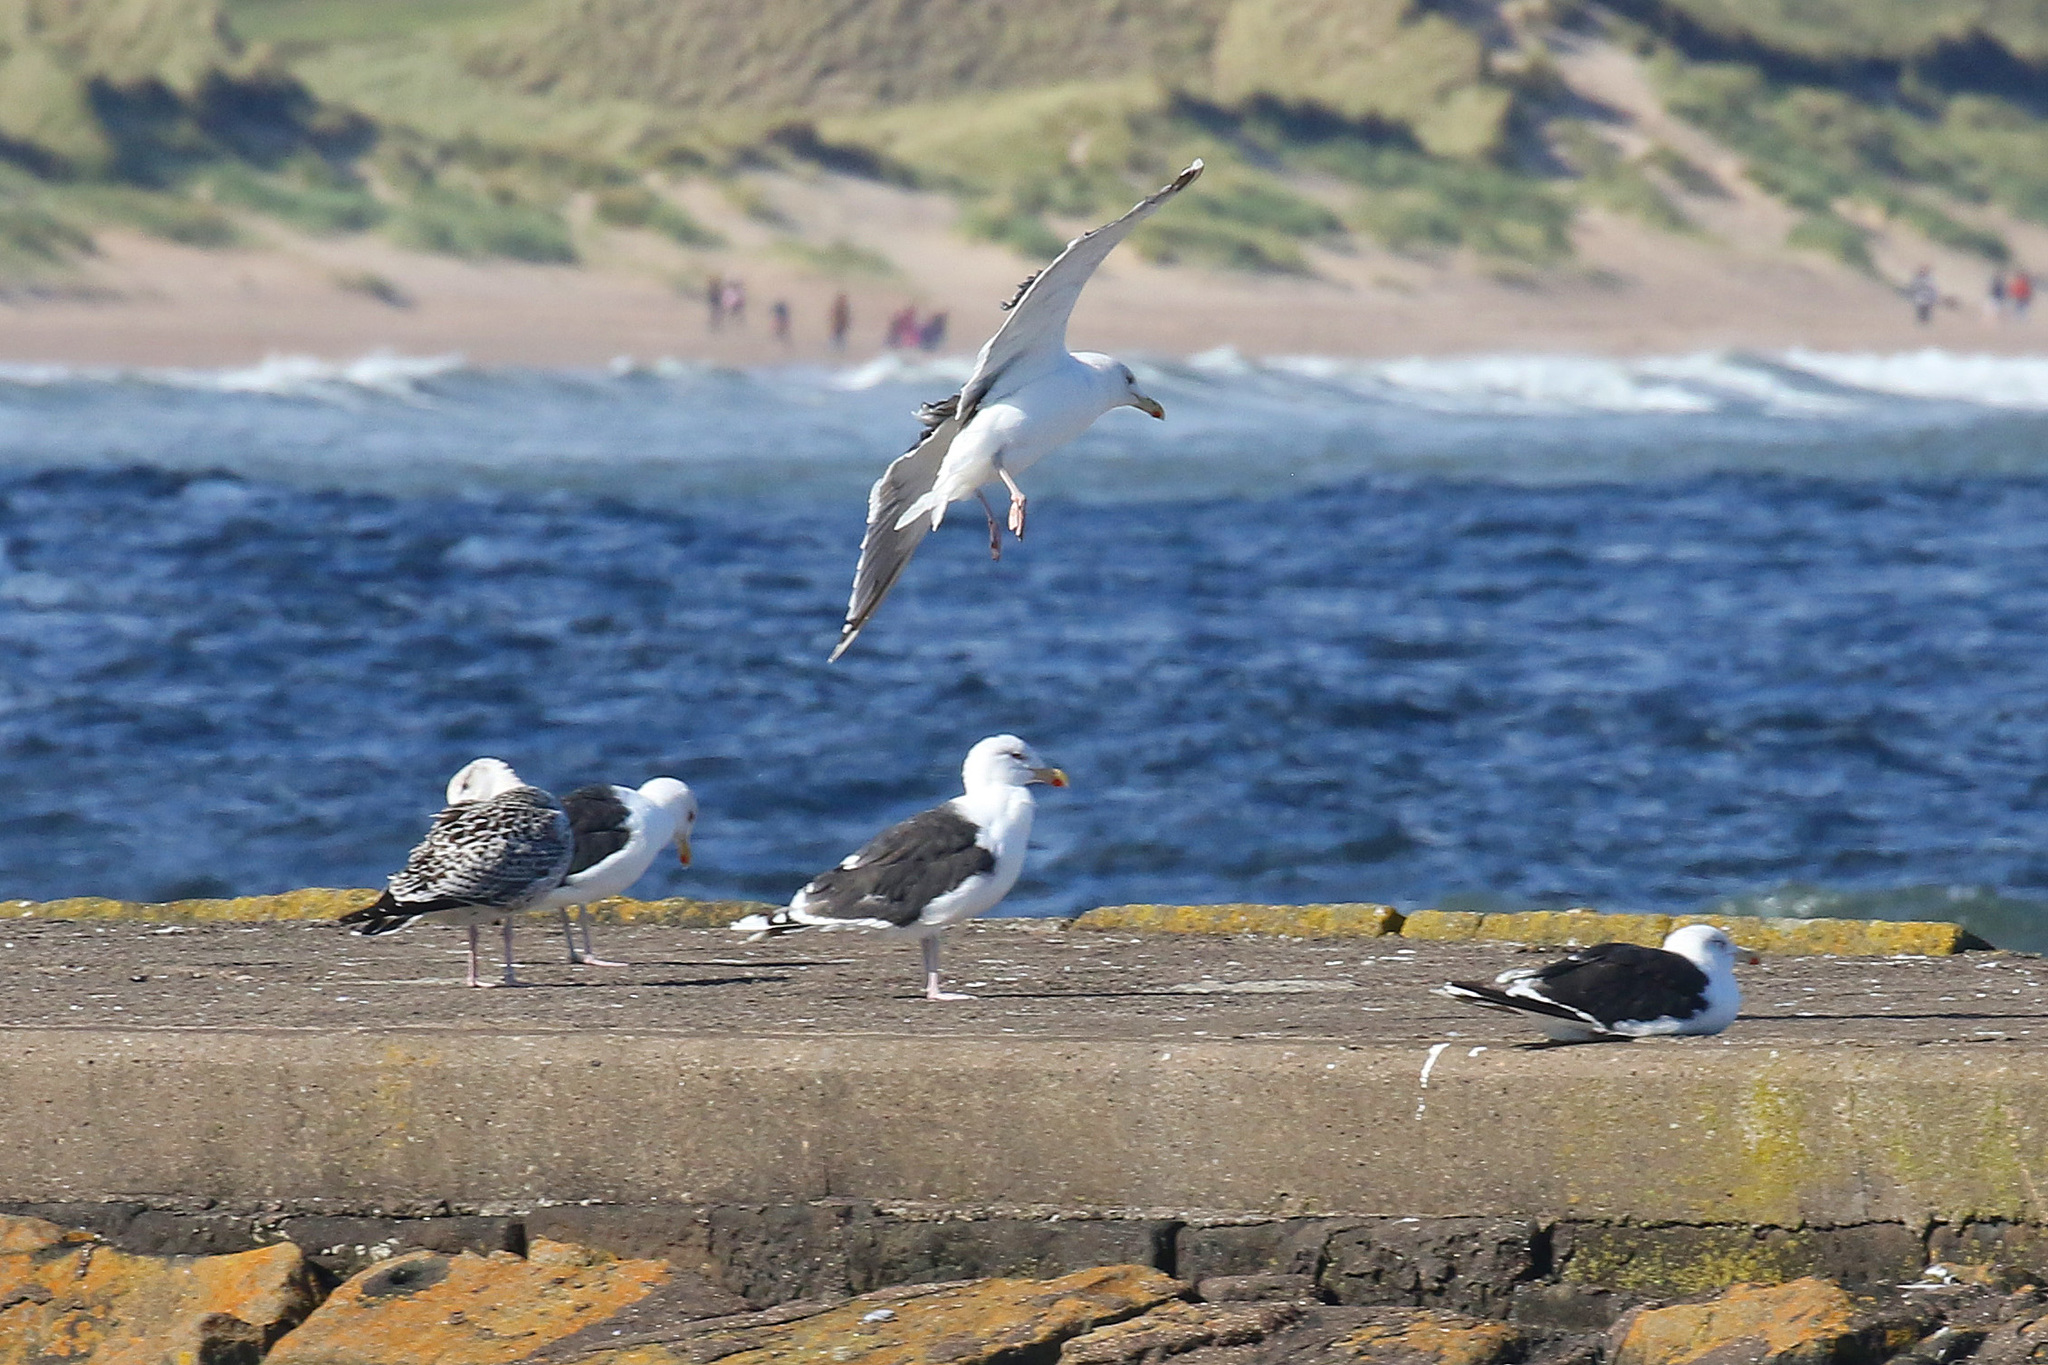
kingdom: Animalia
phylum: Chordata
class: Aves
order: Charadriiformes
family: Laridae
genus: Larus
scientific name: Larus marinus
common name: Great black-backed gull
